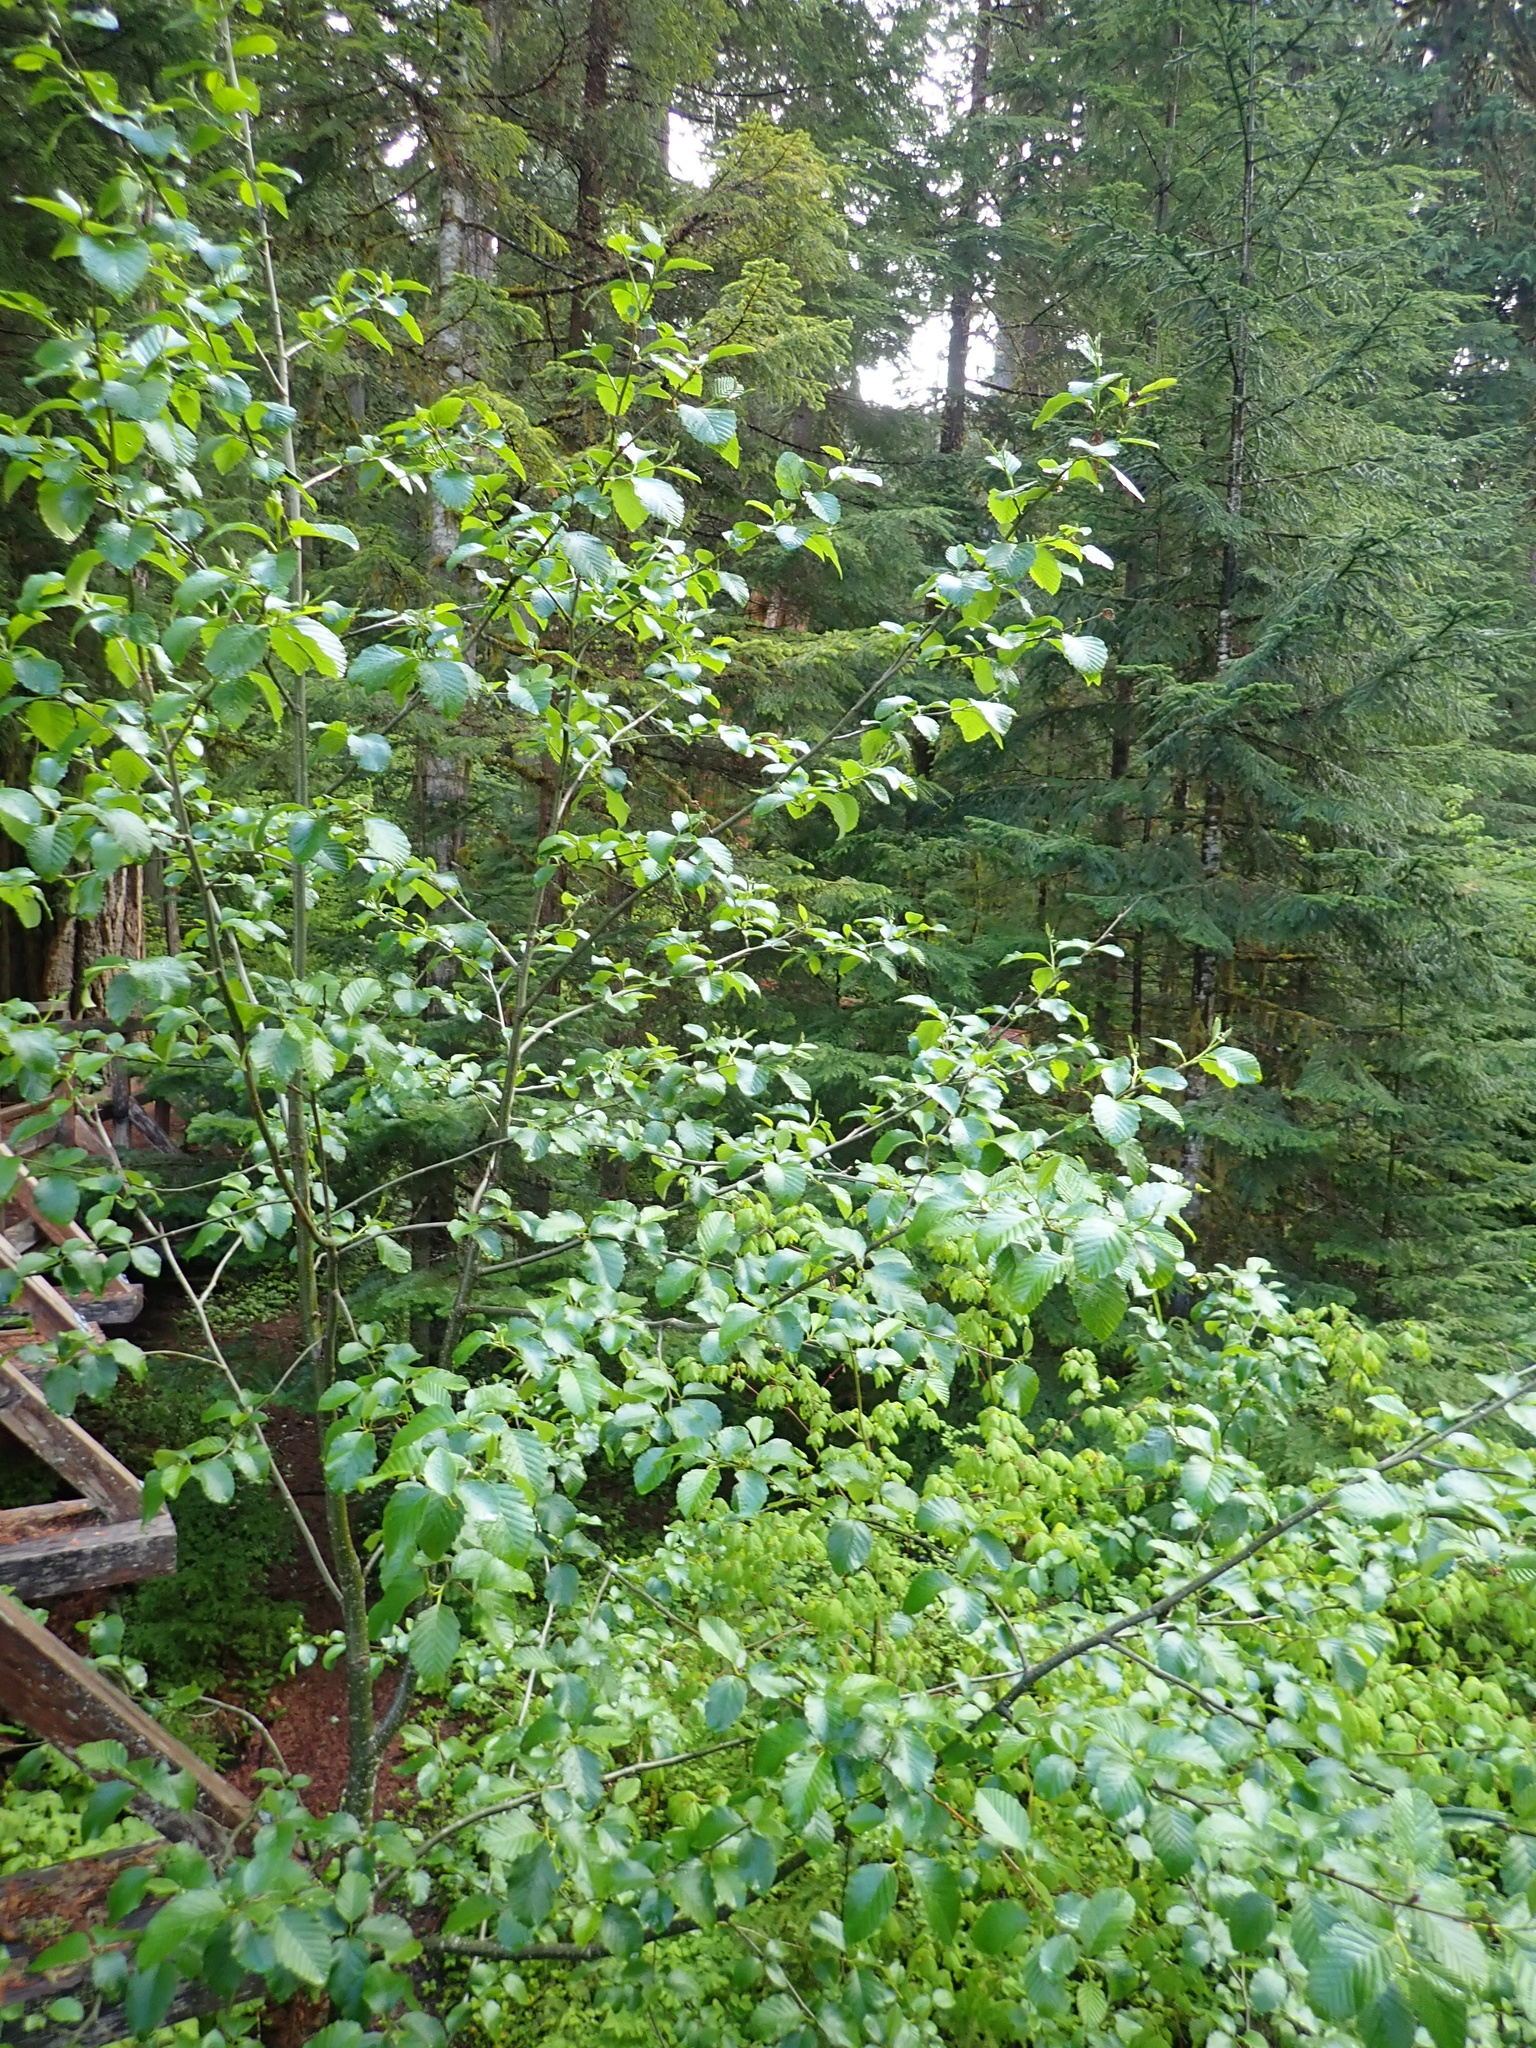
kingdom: Plantae
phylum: Tracheophyta
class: Magnoliopsida
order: Fagales
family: Betulaceae
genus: Alnus
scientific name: Alnus rubra
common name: Red alder
